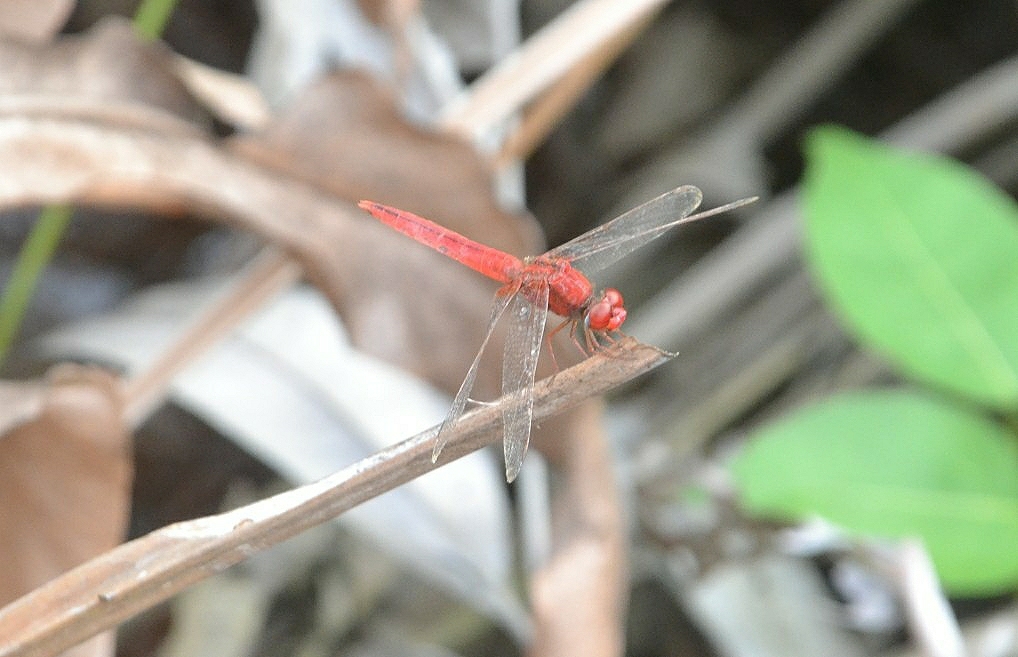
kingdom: Animalia
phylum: Arthropoda
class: Insecta
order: Odonata
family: Libellulidae
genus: Crocothemis
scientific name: Crocothemis servilia
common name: Scarlet skimmer
